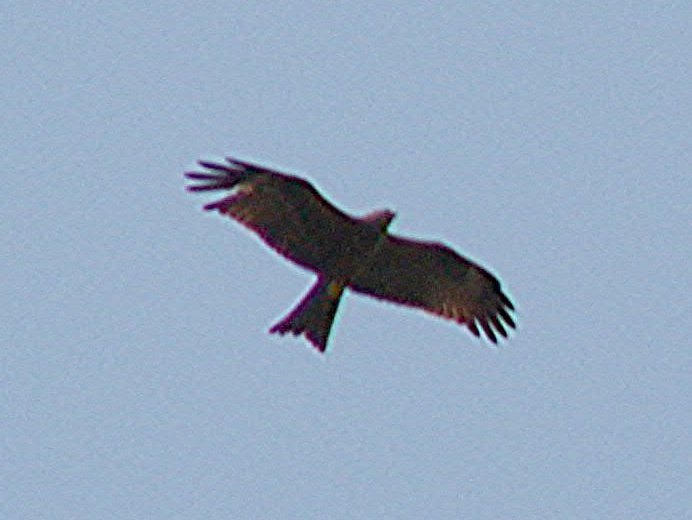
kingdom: Animalia
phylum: Chordata
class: Aves
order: Accipitriformes
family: Accipitridae
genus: Milvus
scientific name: Milvus migrans
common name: Black kite
